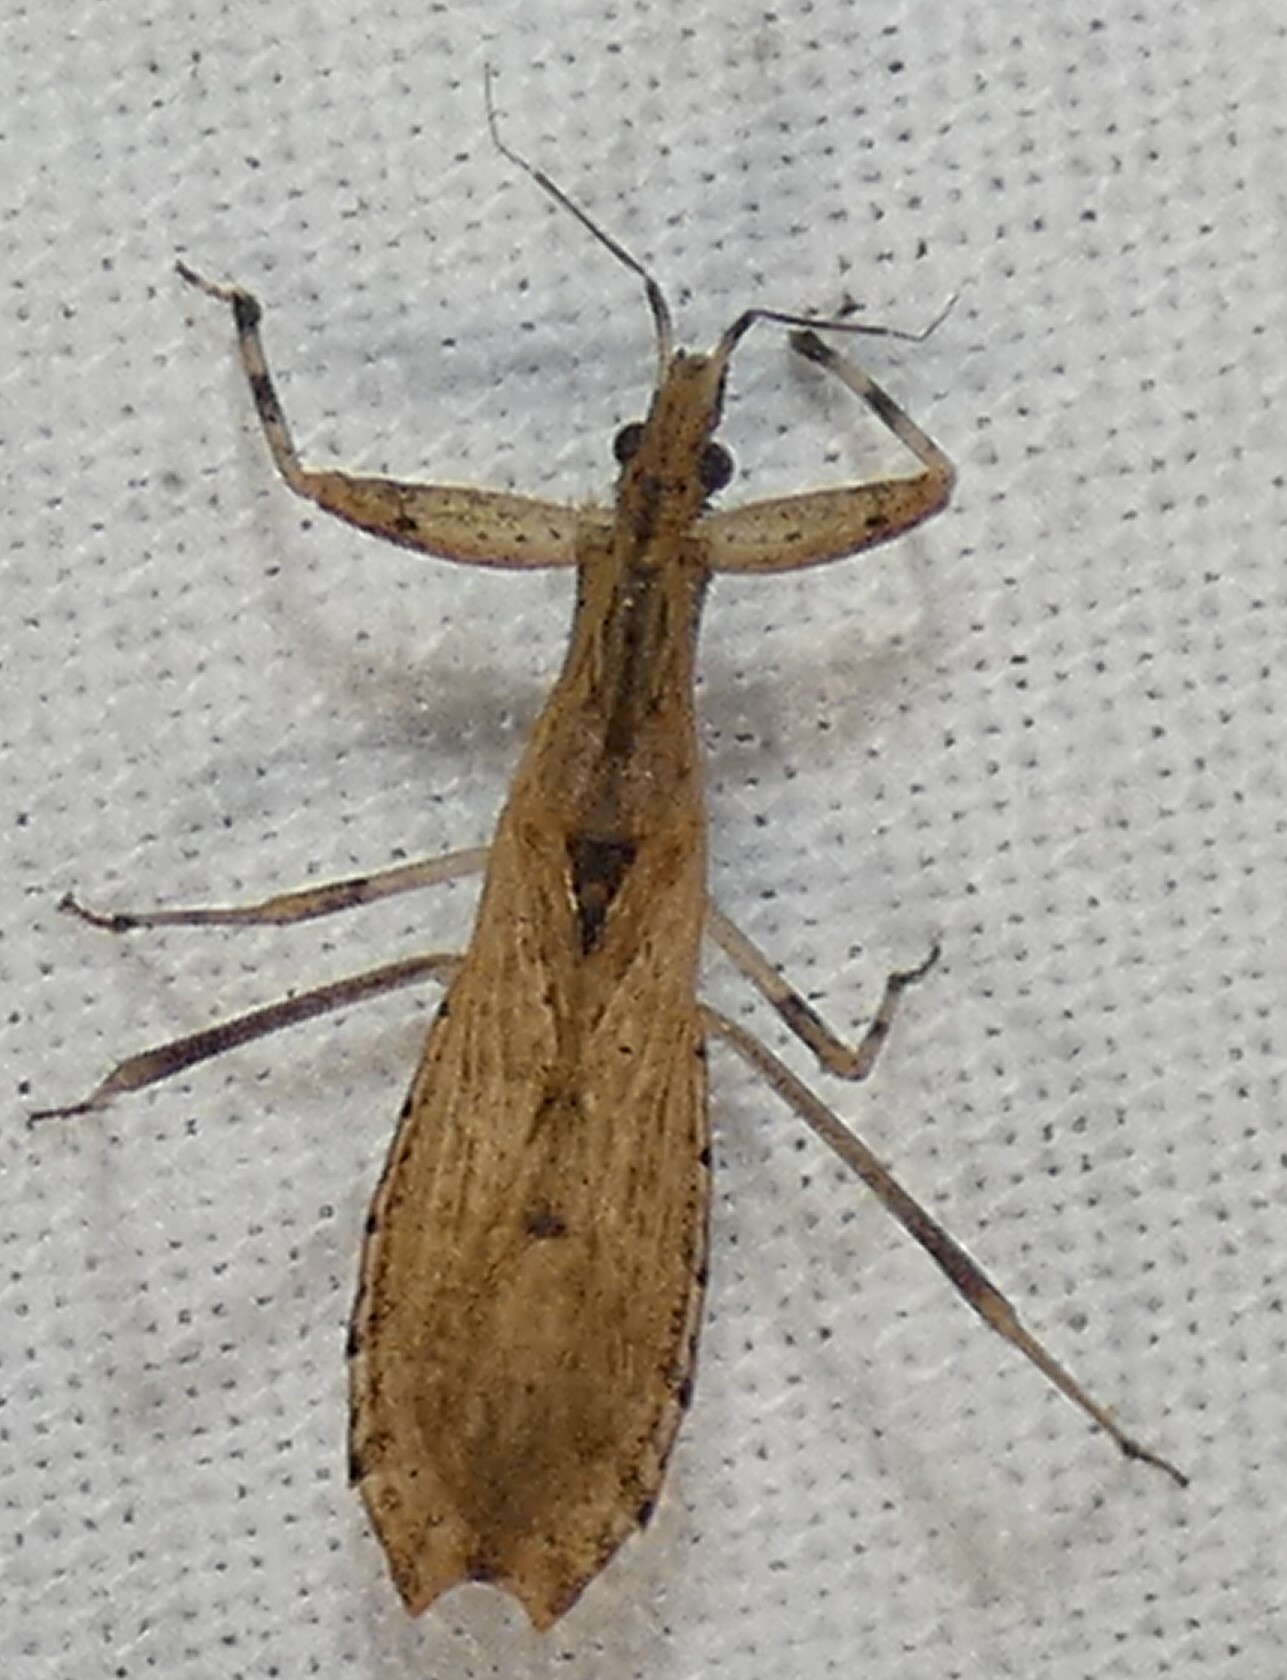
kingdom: Animalia
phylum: Arthropoda
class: Insecta
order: Hemiptera
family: Reduviidae
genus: Ctenotrachelus
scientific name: Ctenotrachelus shermani
